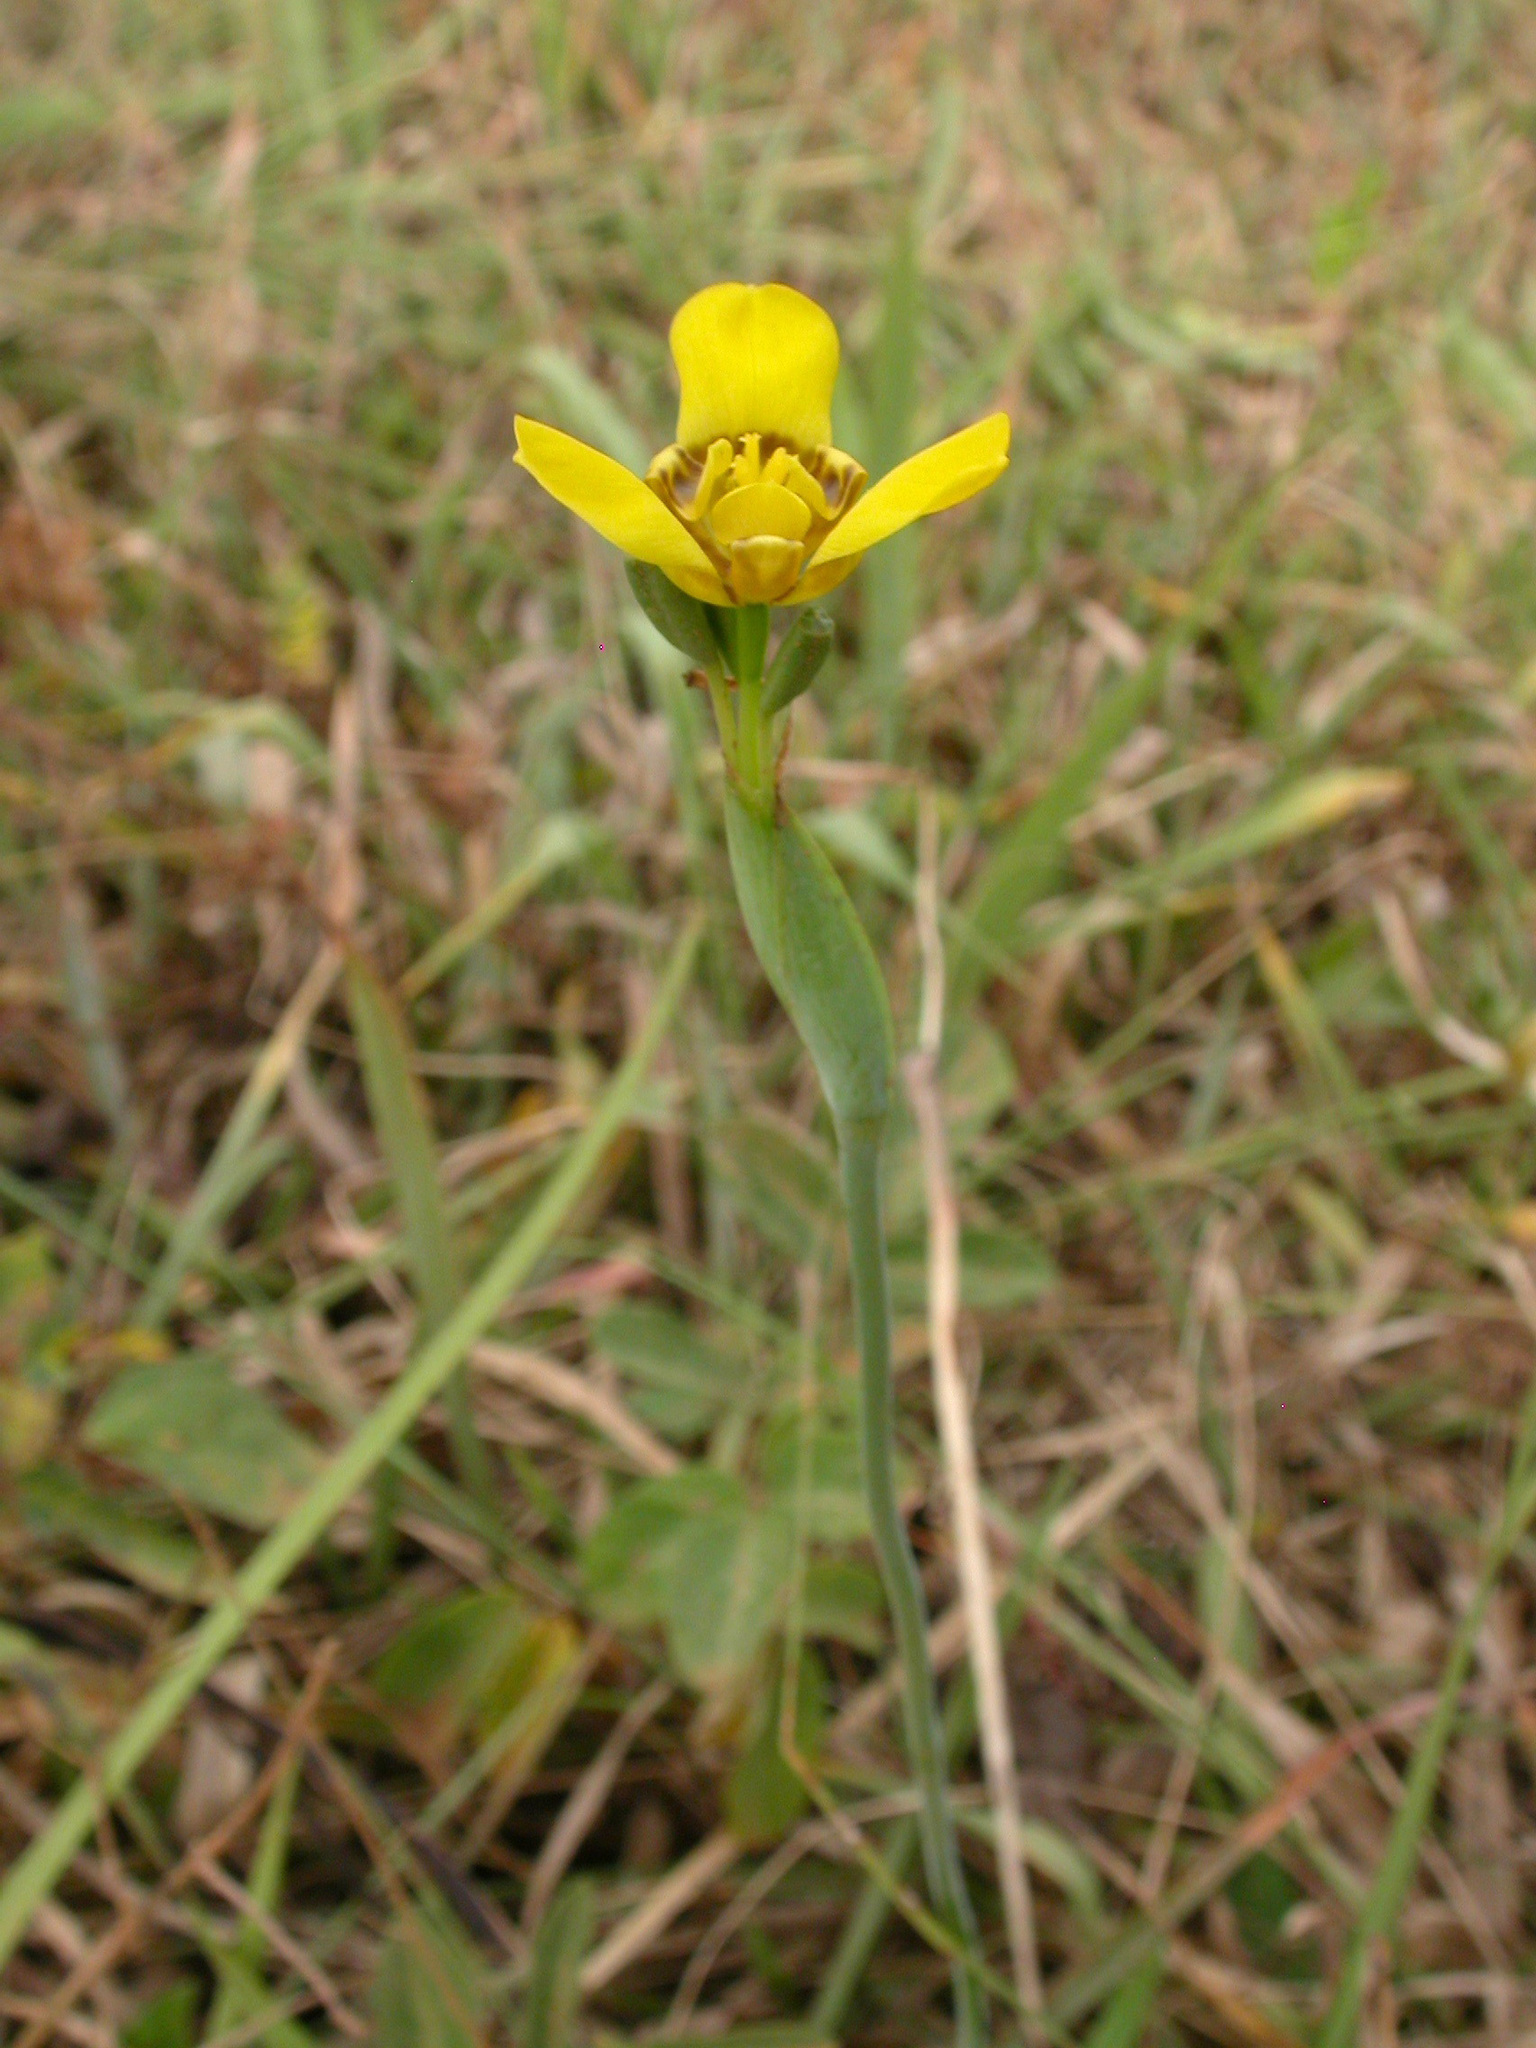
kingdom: Plantae
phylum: Tracheophyta
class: Liliopsida
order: Asparagales
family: Iridaceae
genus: Trimezia
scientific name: Trimezia martinicensis
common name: Martinique trimezia
